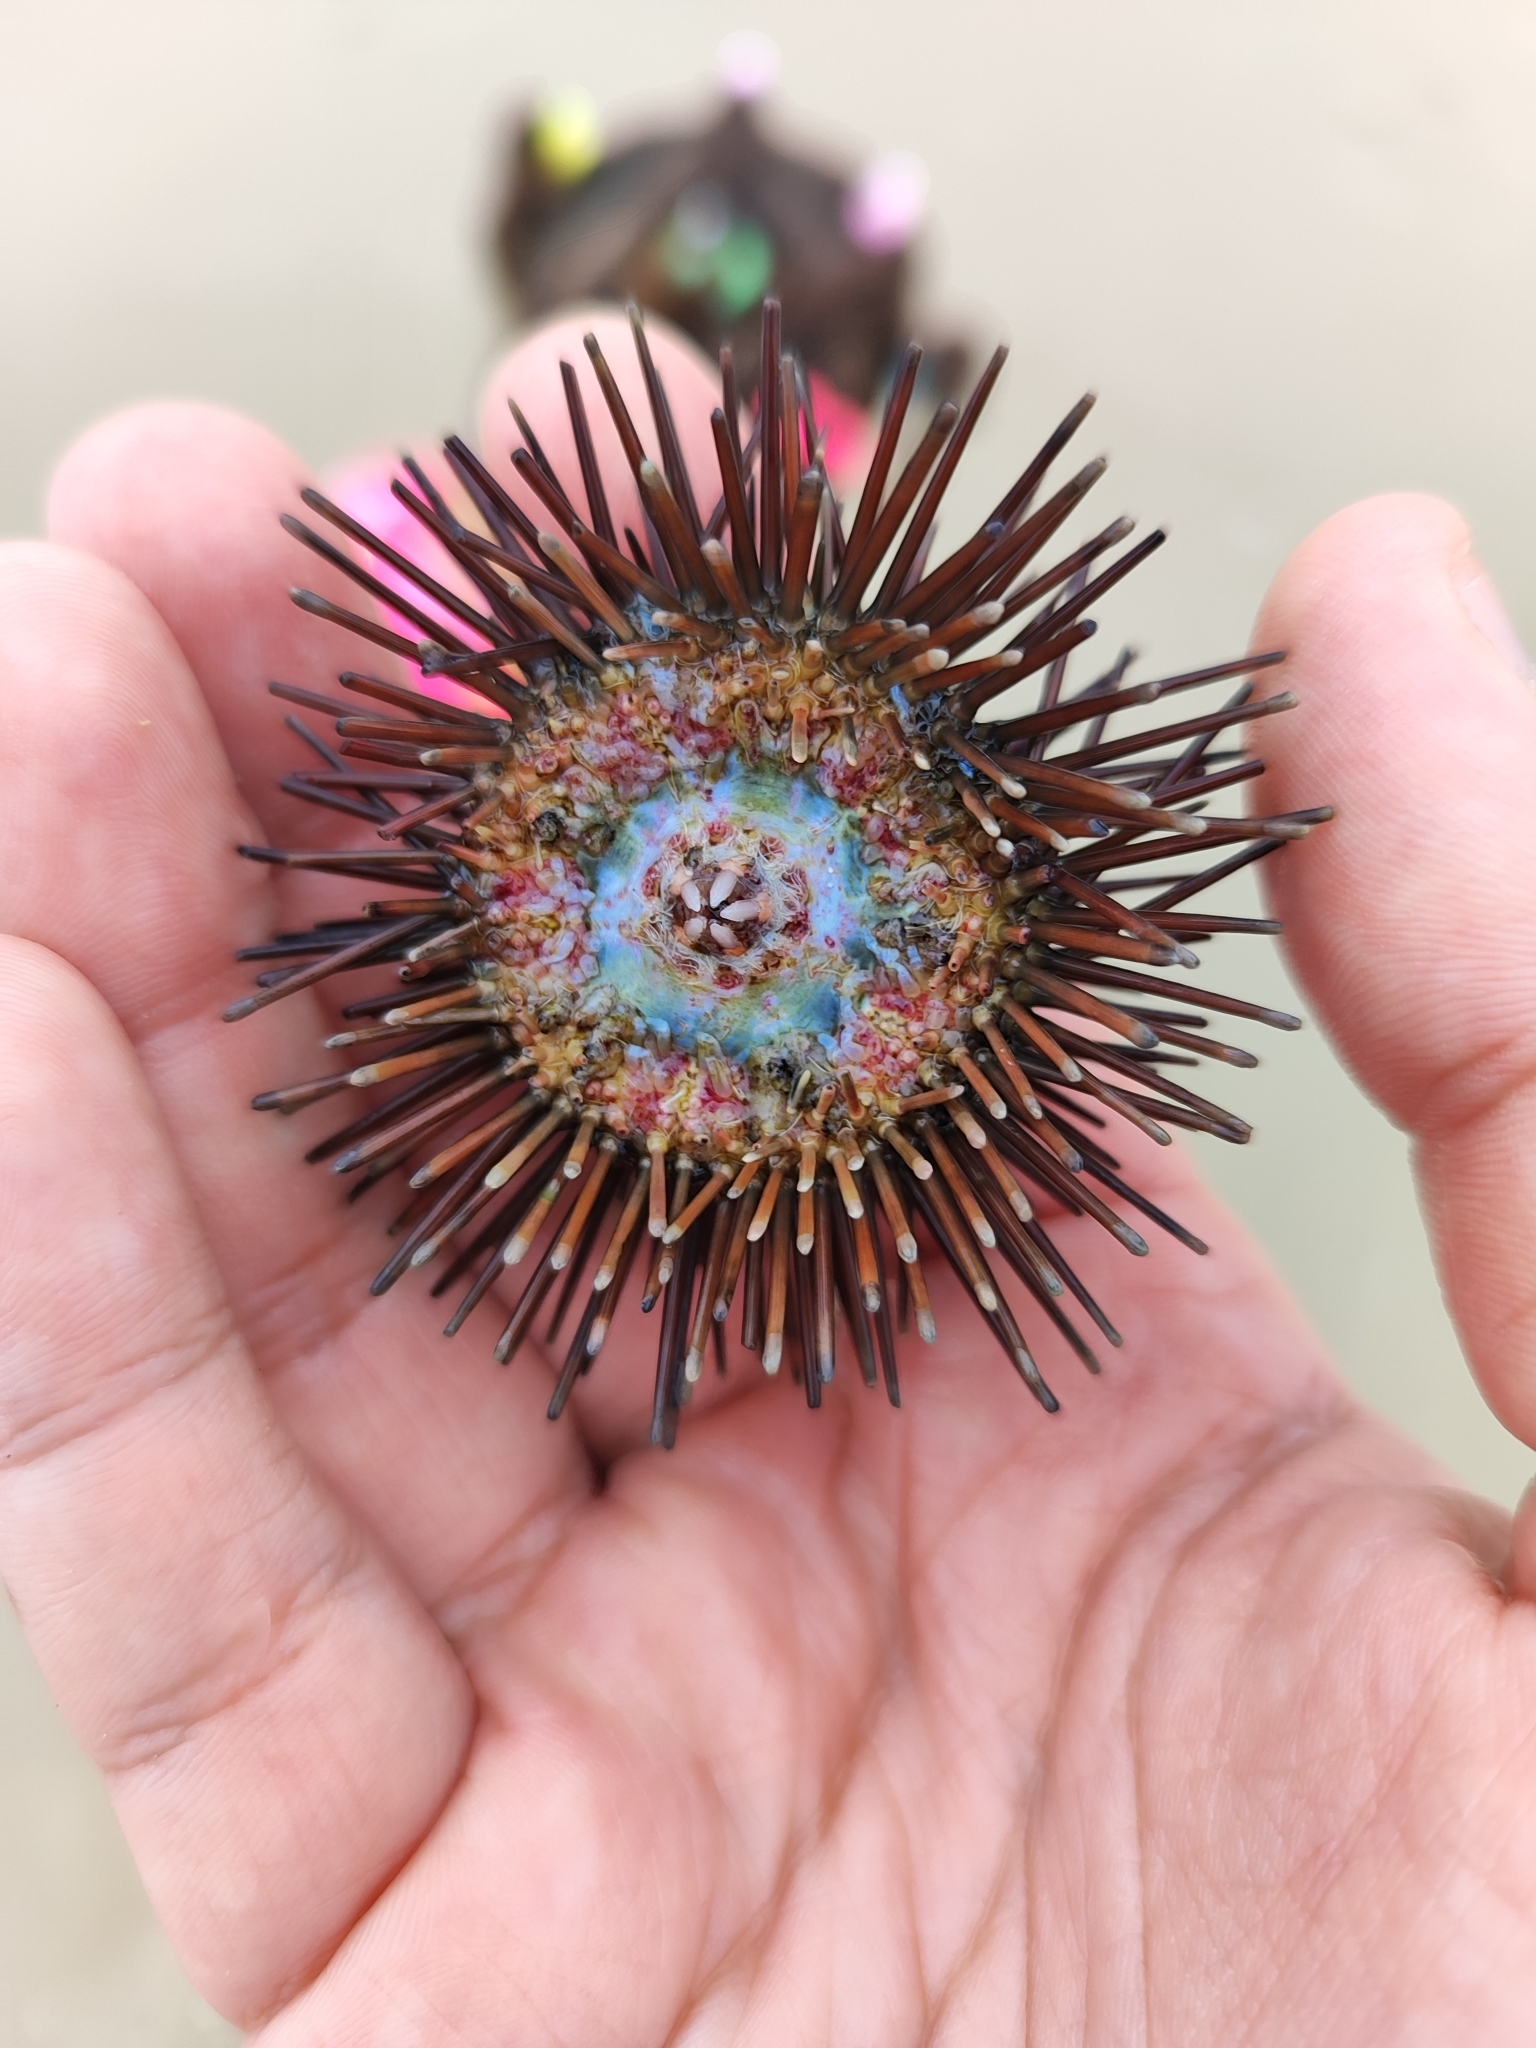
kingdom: Animalia
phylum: Echinodermata
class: Echinoidea
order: Arbacioida
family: Arbaciidae
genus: Arbacia
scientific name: Arbacia lixula
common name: Black sea urchin
